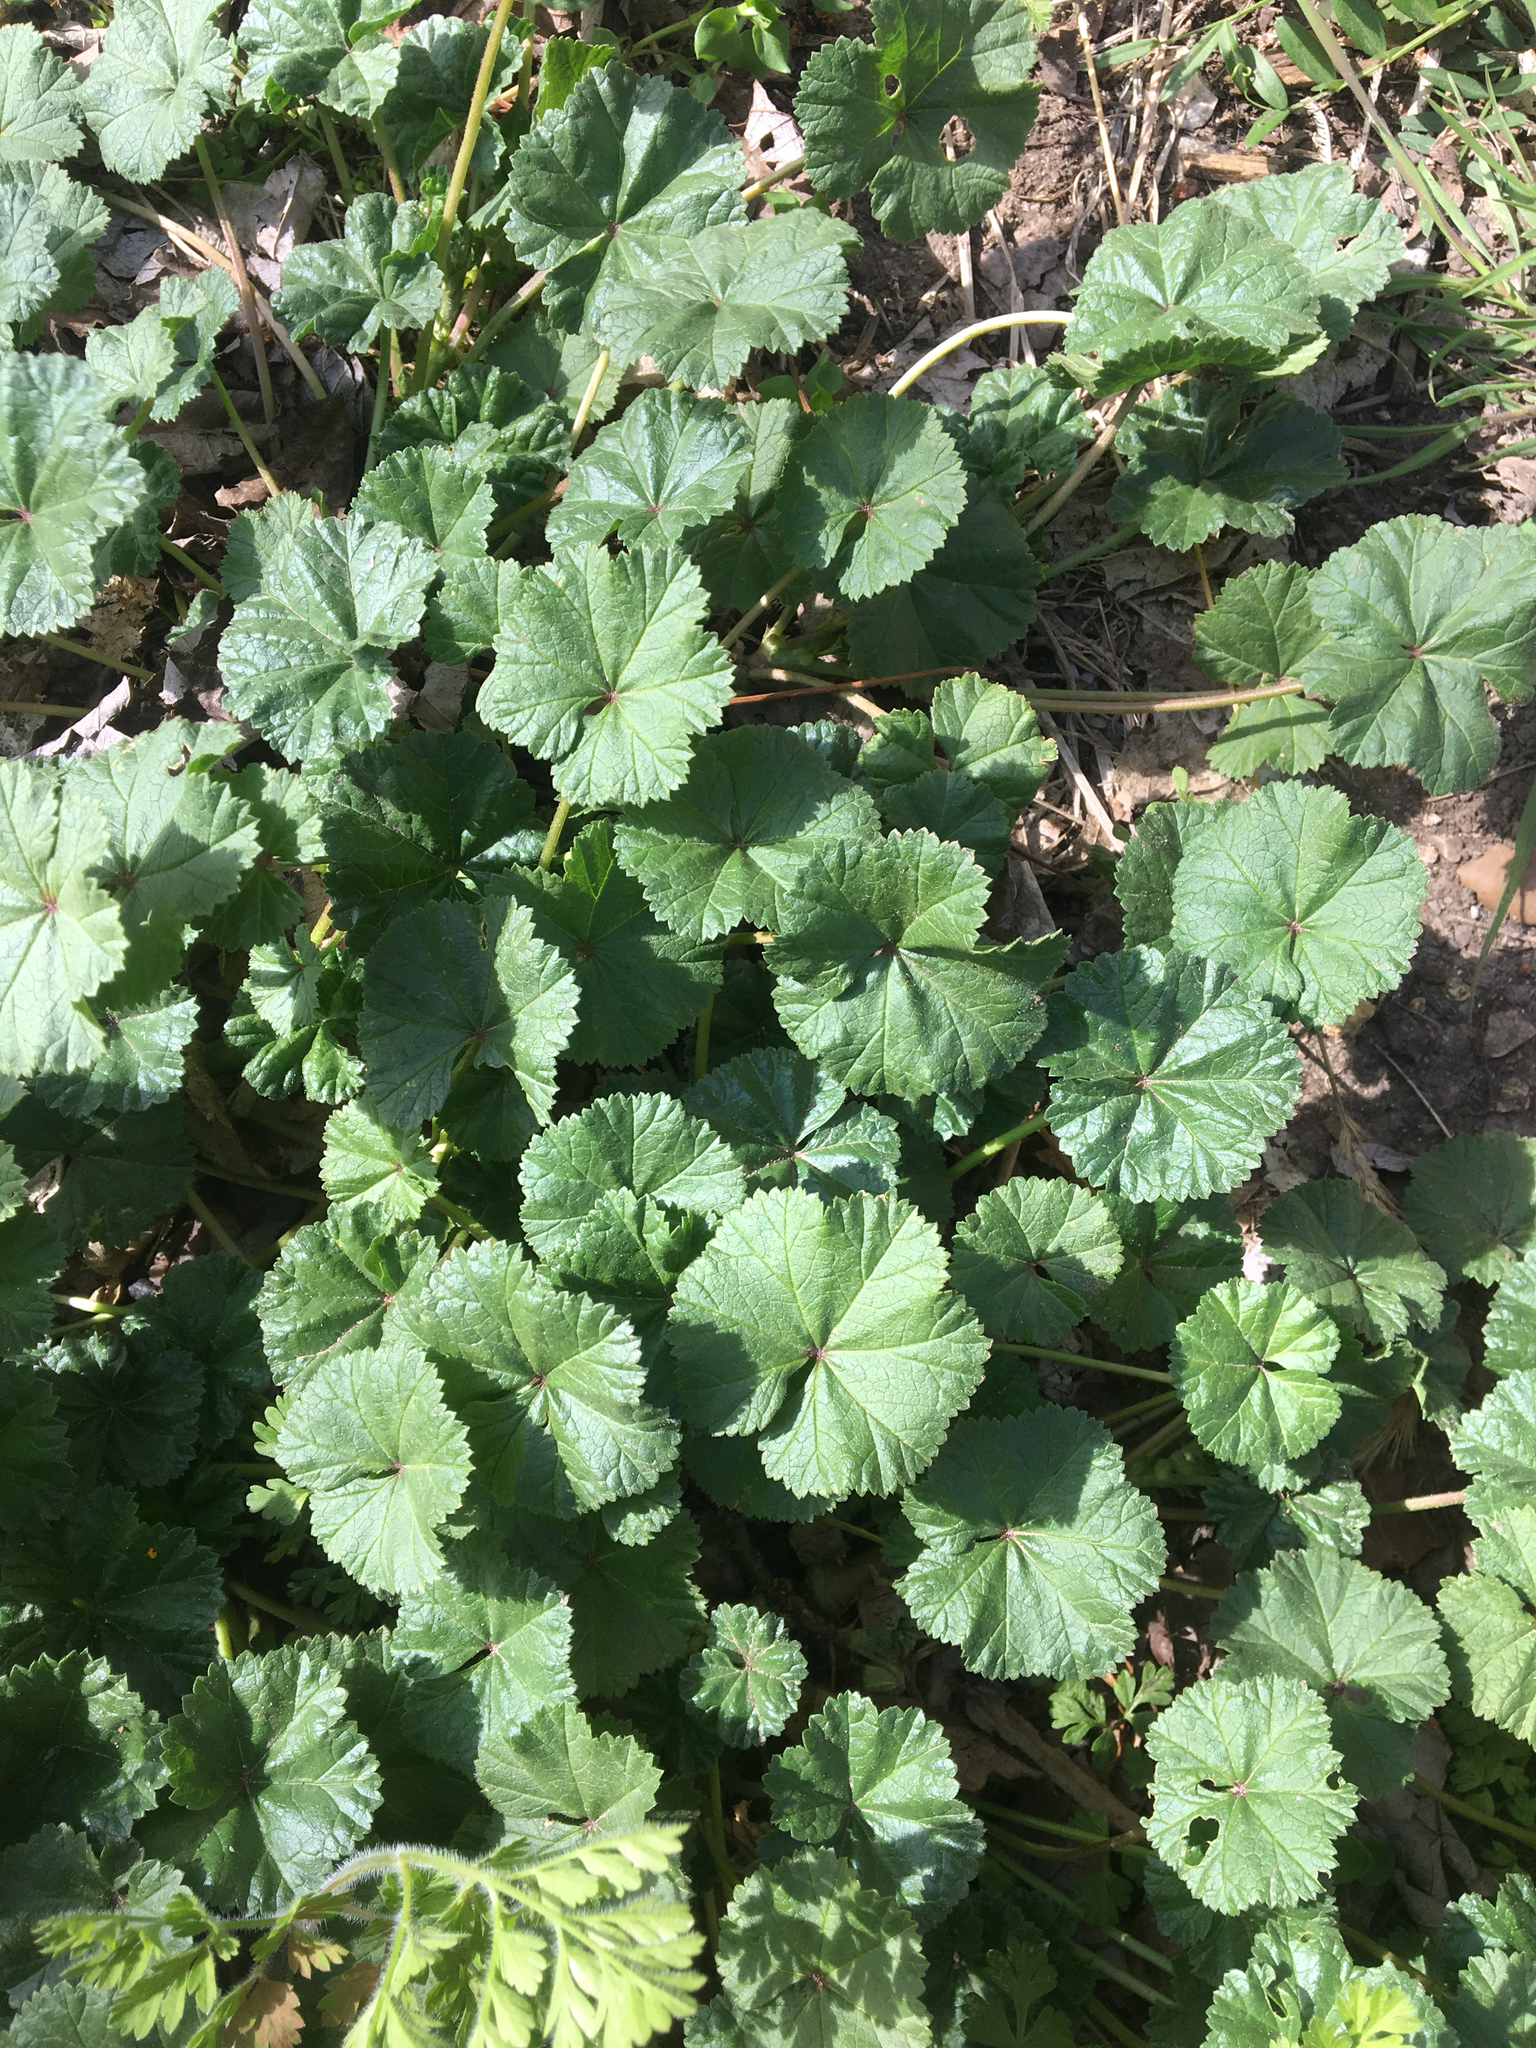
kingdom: Plantae
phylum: Tracheophyta
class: Magnoliopsida
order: Malvales
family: Malvaceae
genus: Malva
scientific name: Malva neglecta
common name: Common mallow
